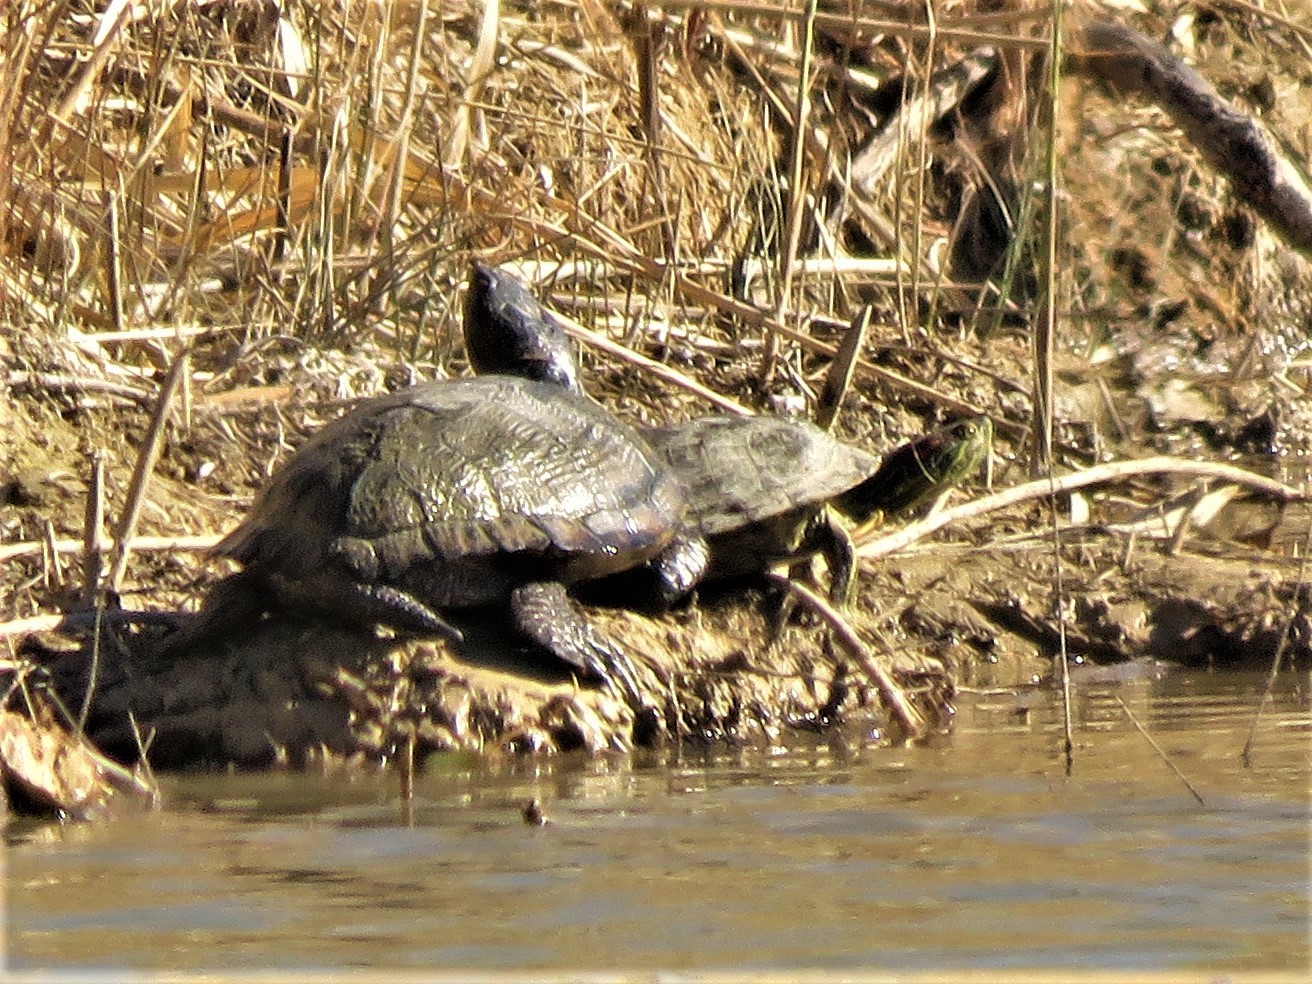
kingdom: Animalia
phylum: Chordata
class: Testudines
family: Emydidae
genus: Trachemys
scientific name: Trachemys scripta
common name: Slider
